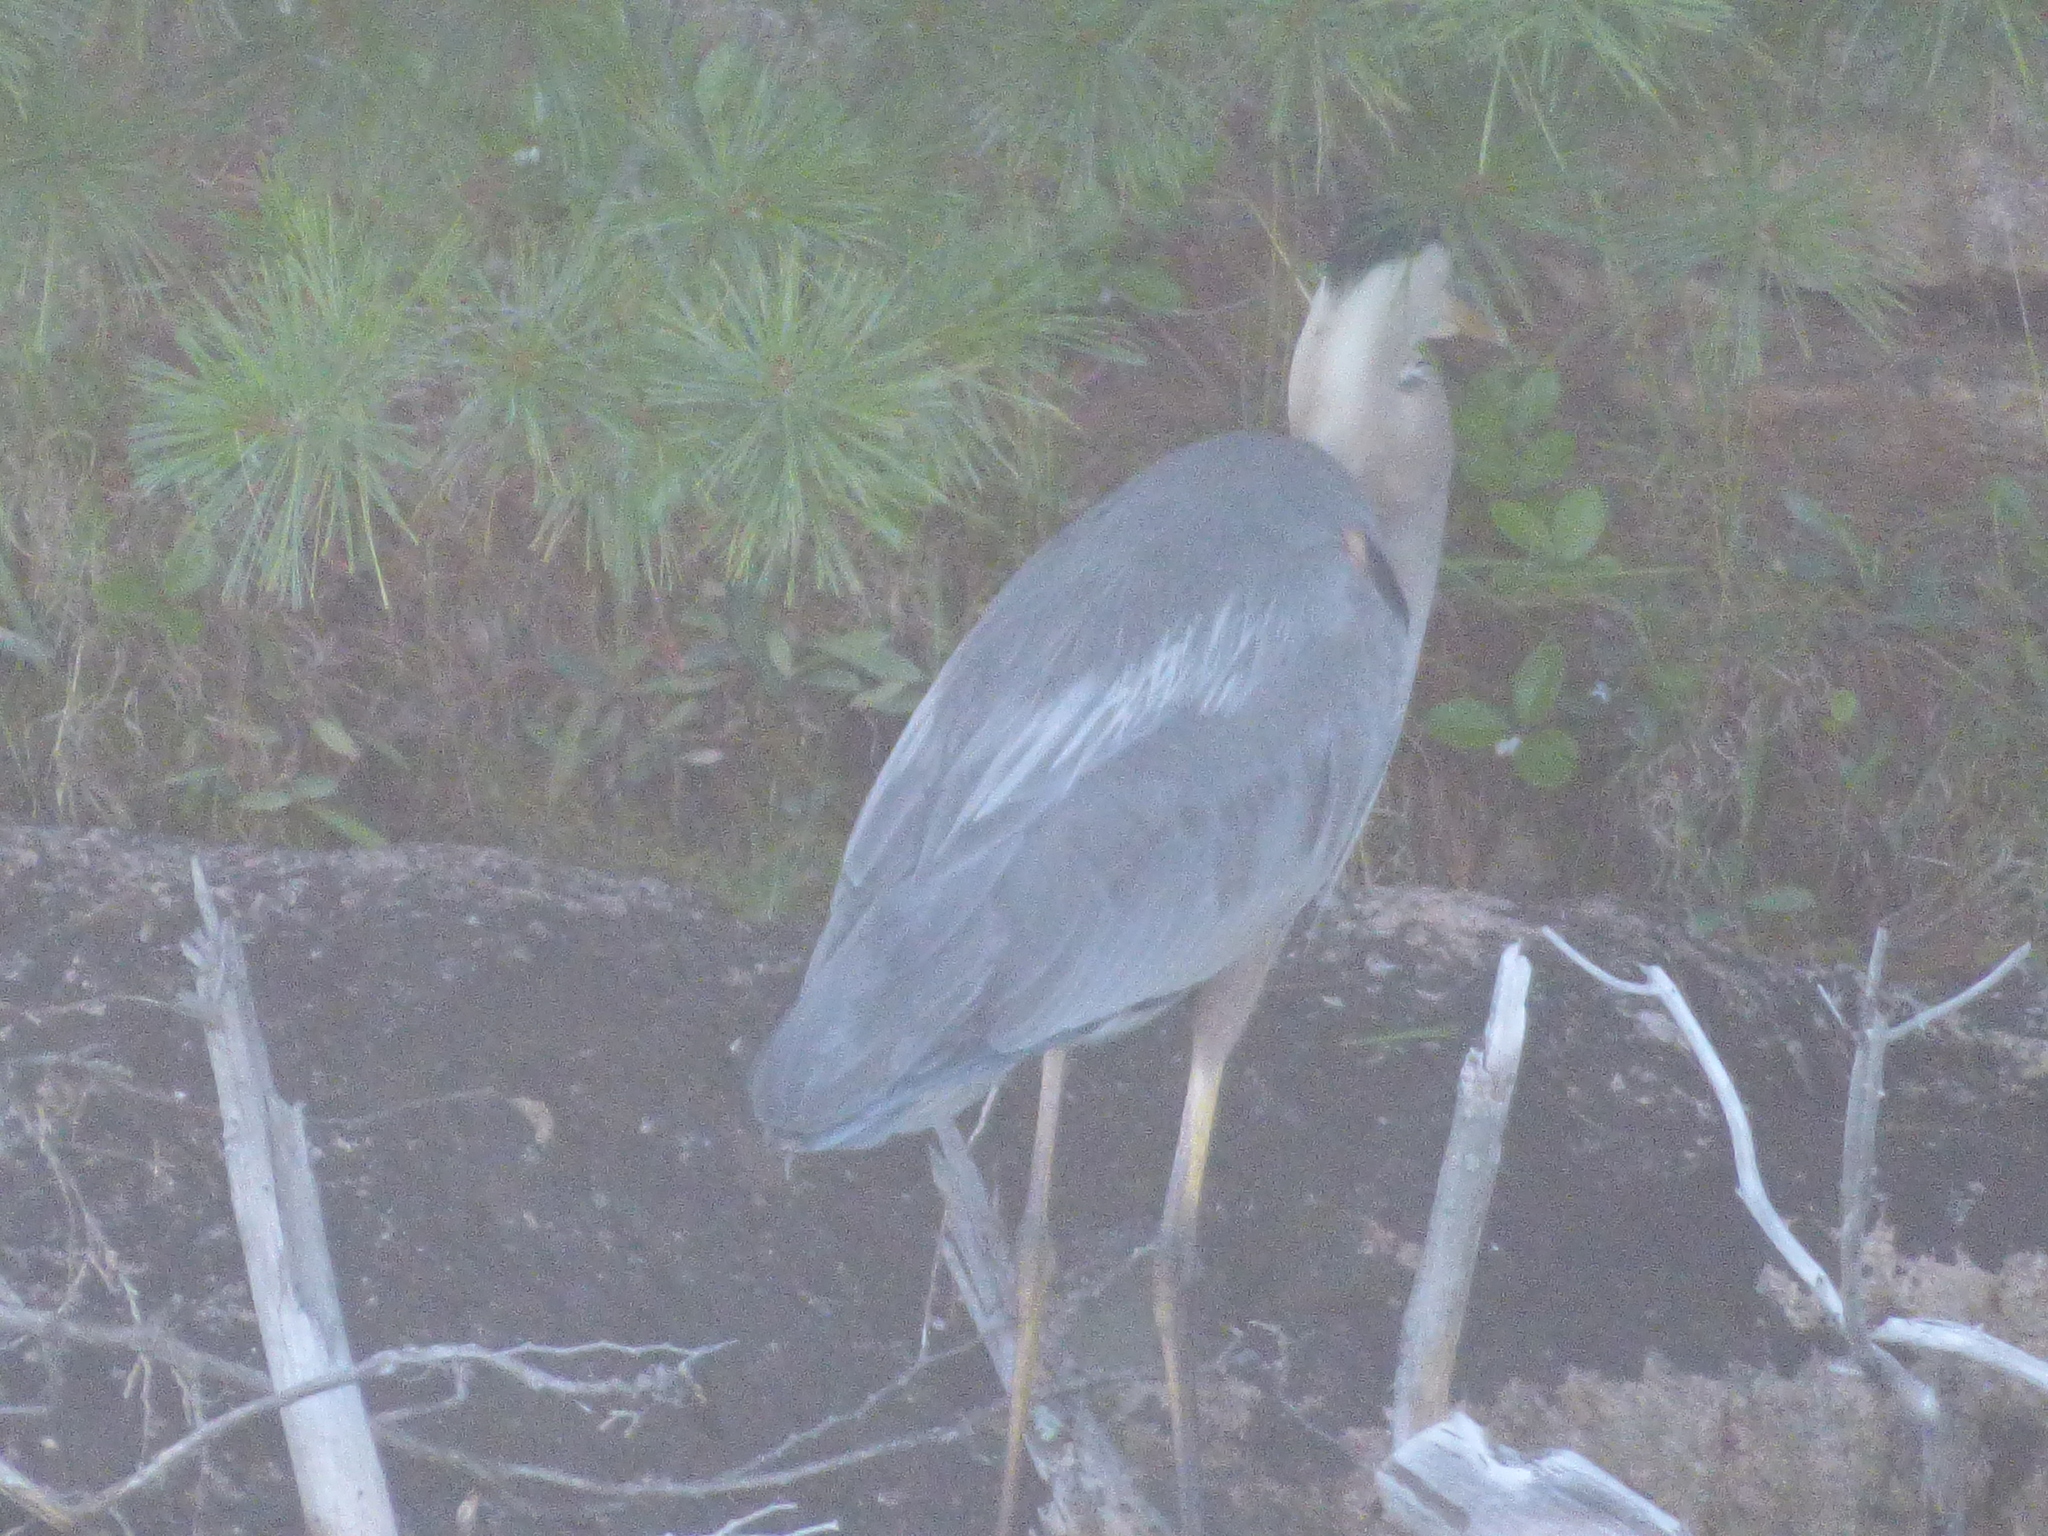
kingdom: Animalia
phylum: Chordata
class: Aves
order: Pelecaniformes
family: Ardeidae
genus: Ardea
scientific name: Ardea herodias
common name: Great blue heron
